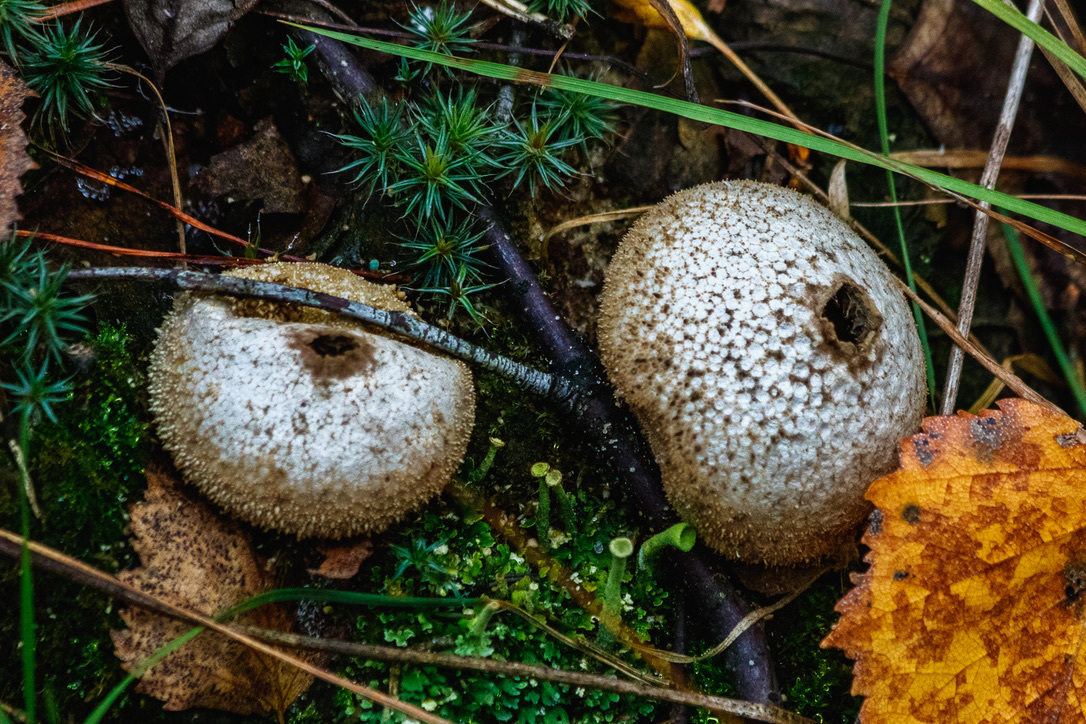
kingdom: Fungi
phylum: Basidiomycota
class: Agaricomycetes
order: Agaricales
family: Lycoperdaceae
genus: Lycoperdon
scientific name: Lycoperdon perlatum
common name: Common puffball
